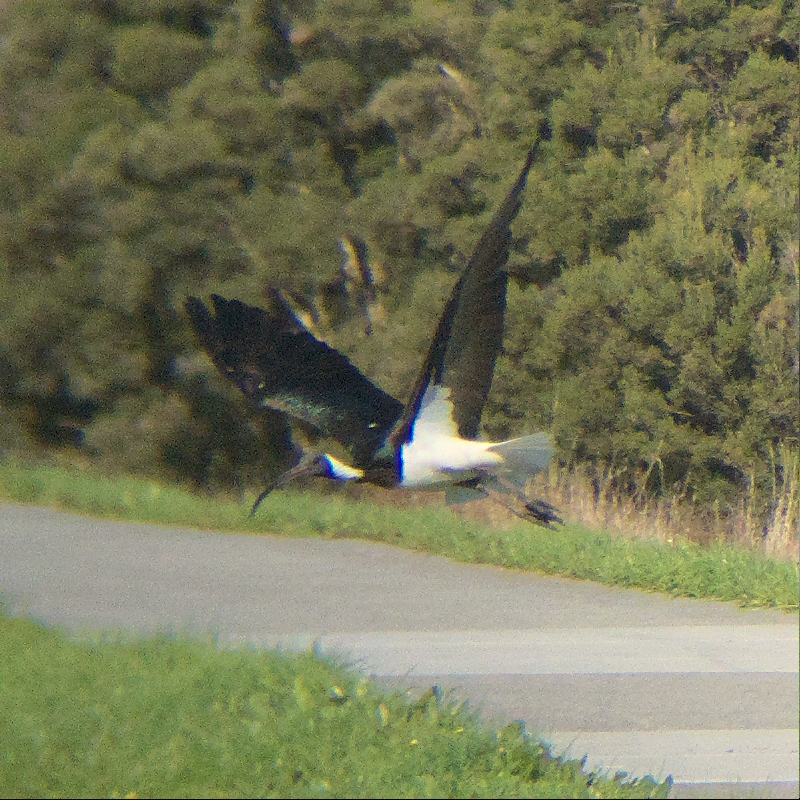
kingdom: Animalia
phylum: Chordata
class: Aves
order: Pelecaniformes
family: Threskiornithidae
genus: Threskiornis
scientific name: Threskiornis spinicollis
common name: Straw-necked ibis
